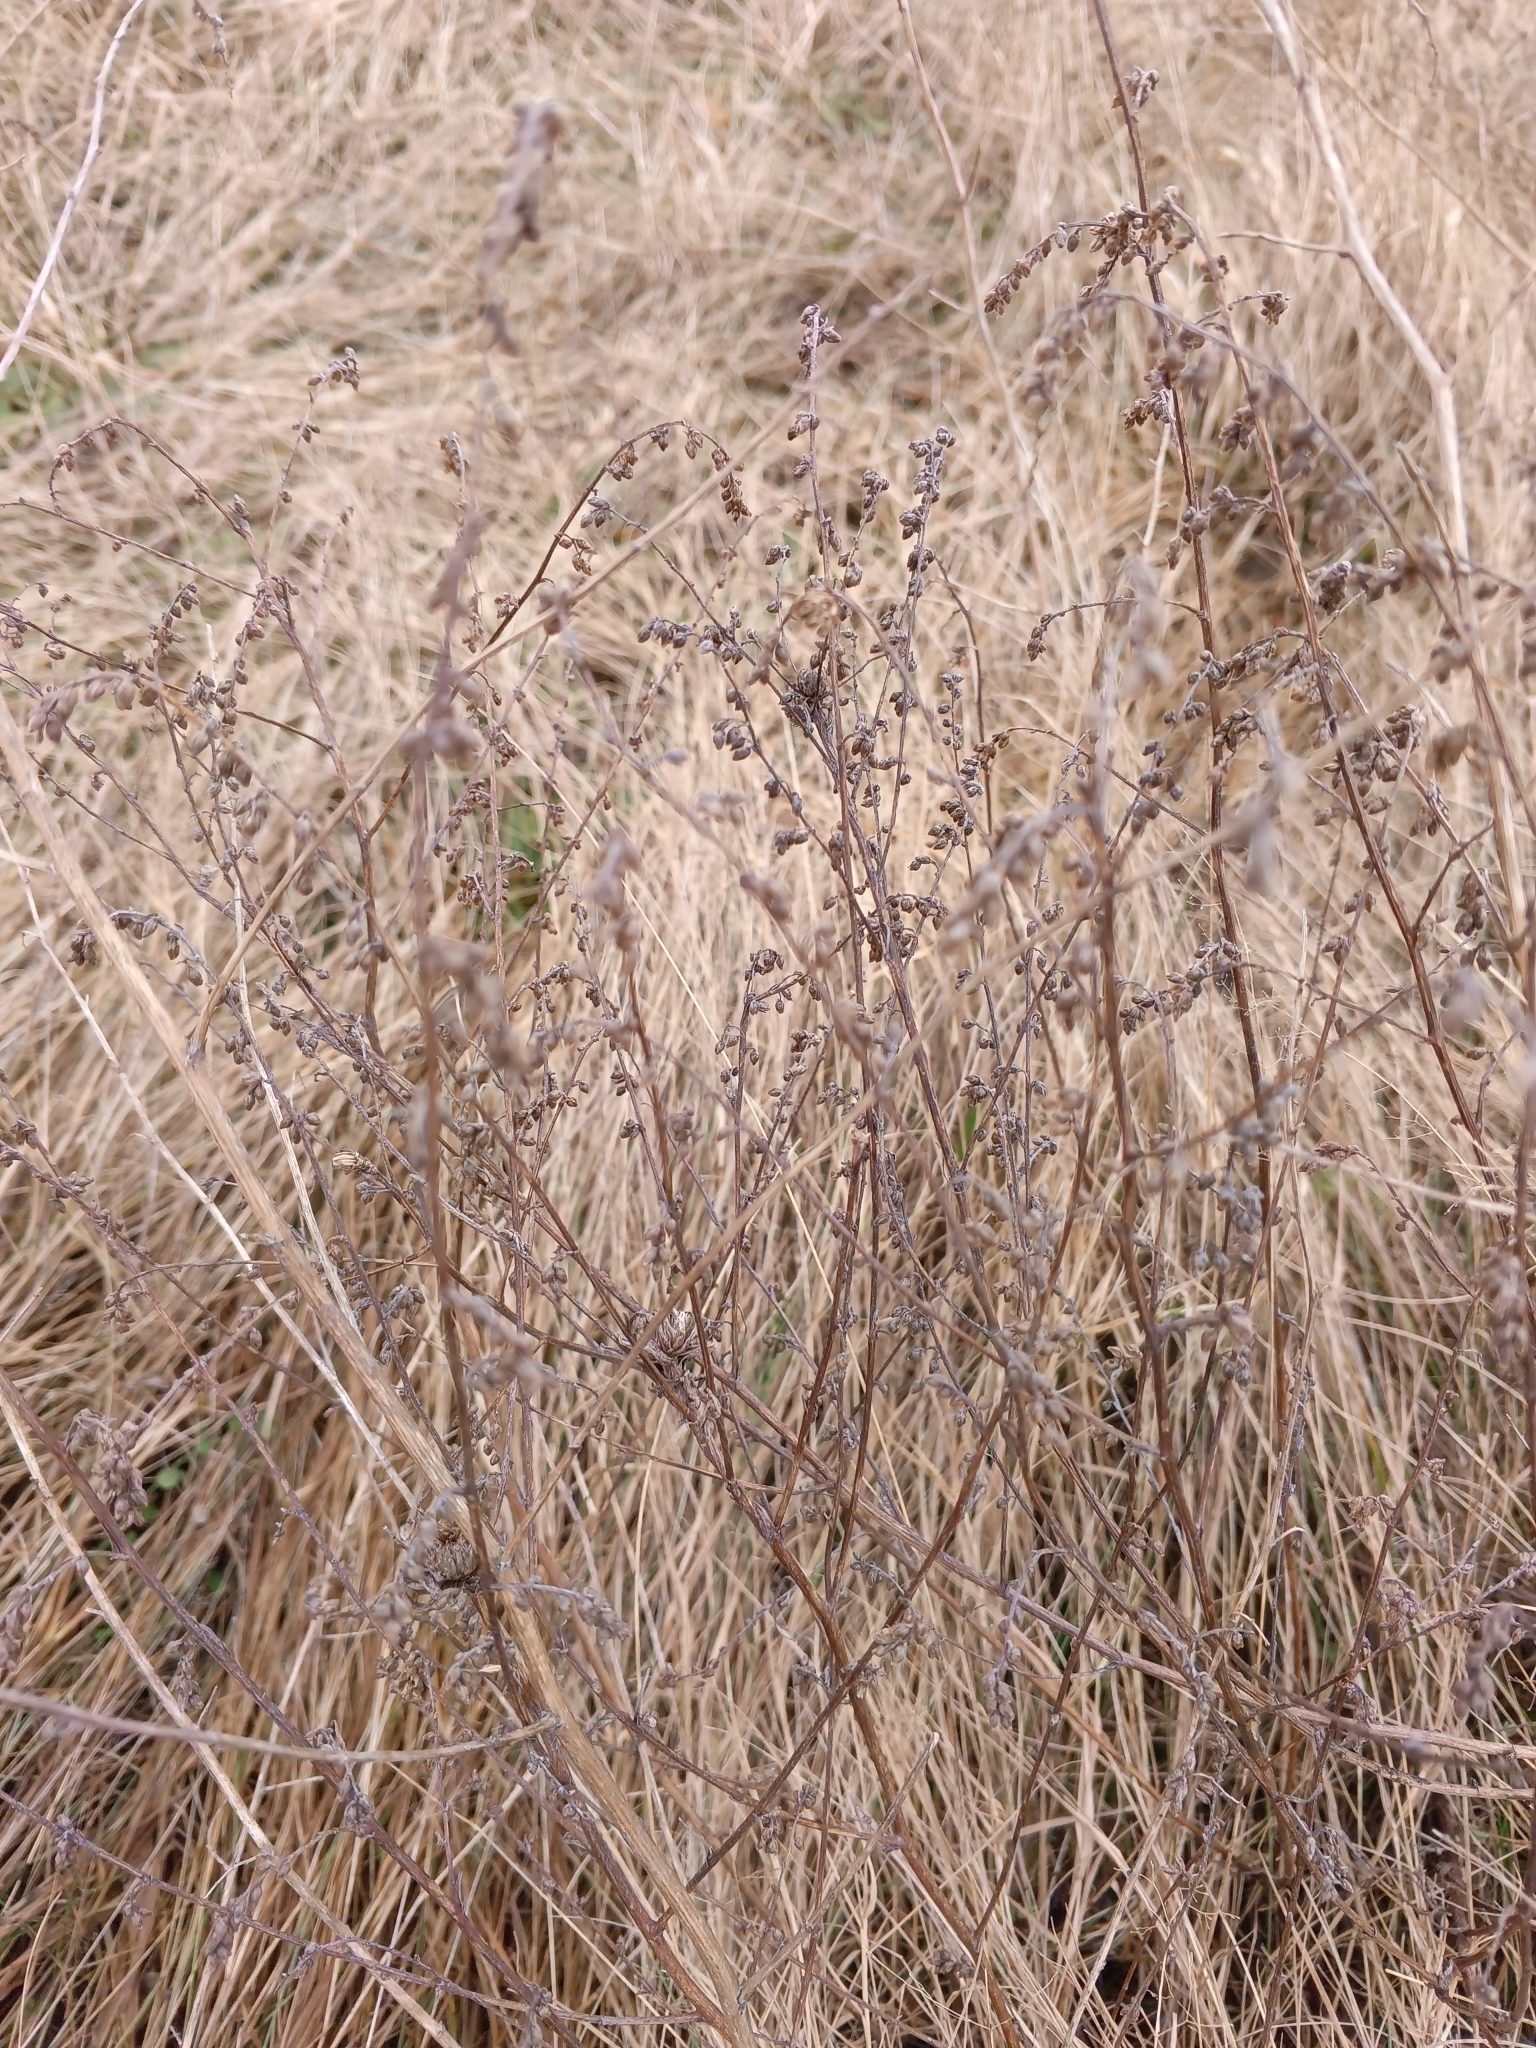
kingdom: Plantae
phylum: Tracheophyta
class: Magnoliopsida
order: Asterales
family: Asteraceae
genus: Artemisia
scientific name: Artemisia campestris
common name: Field wormwood
